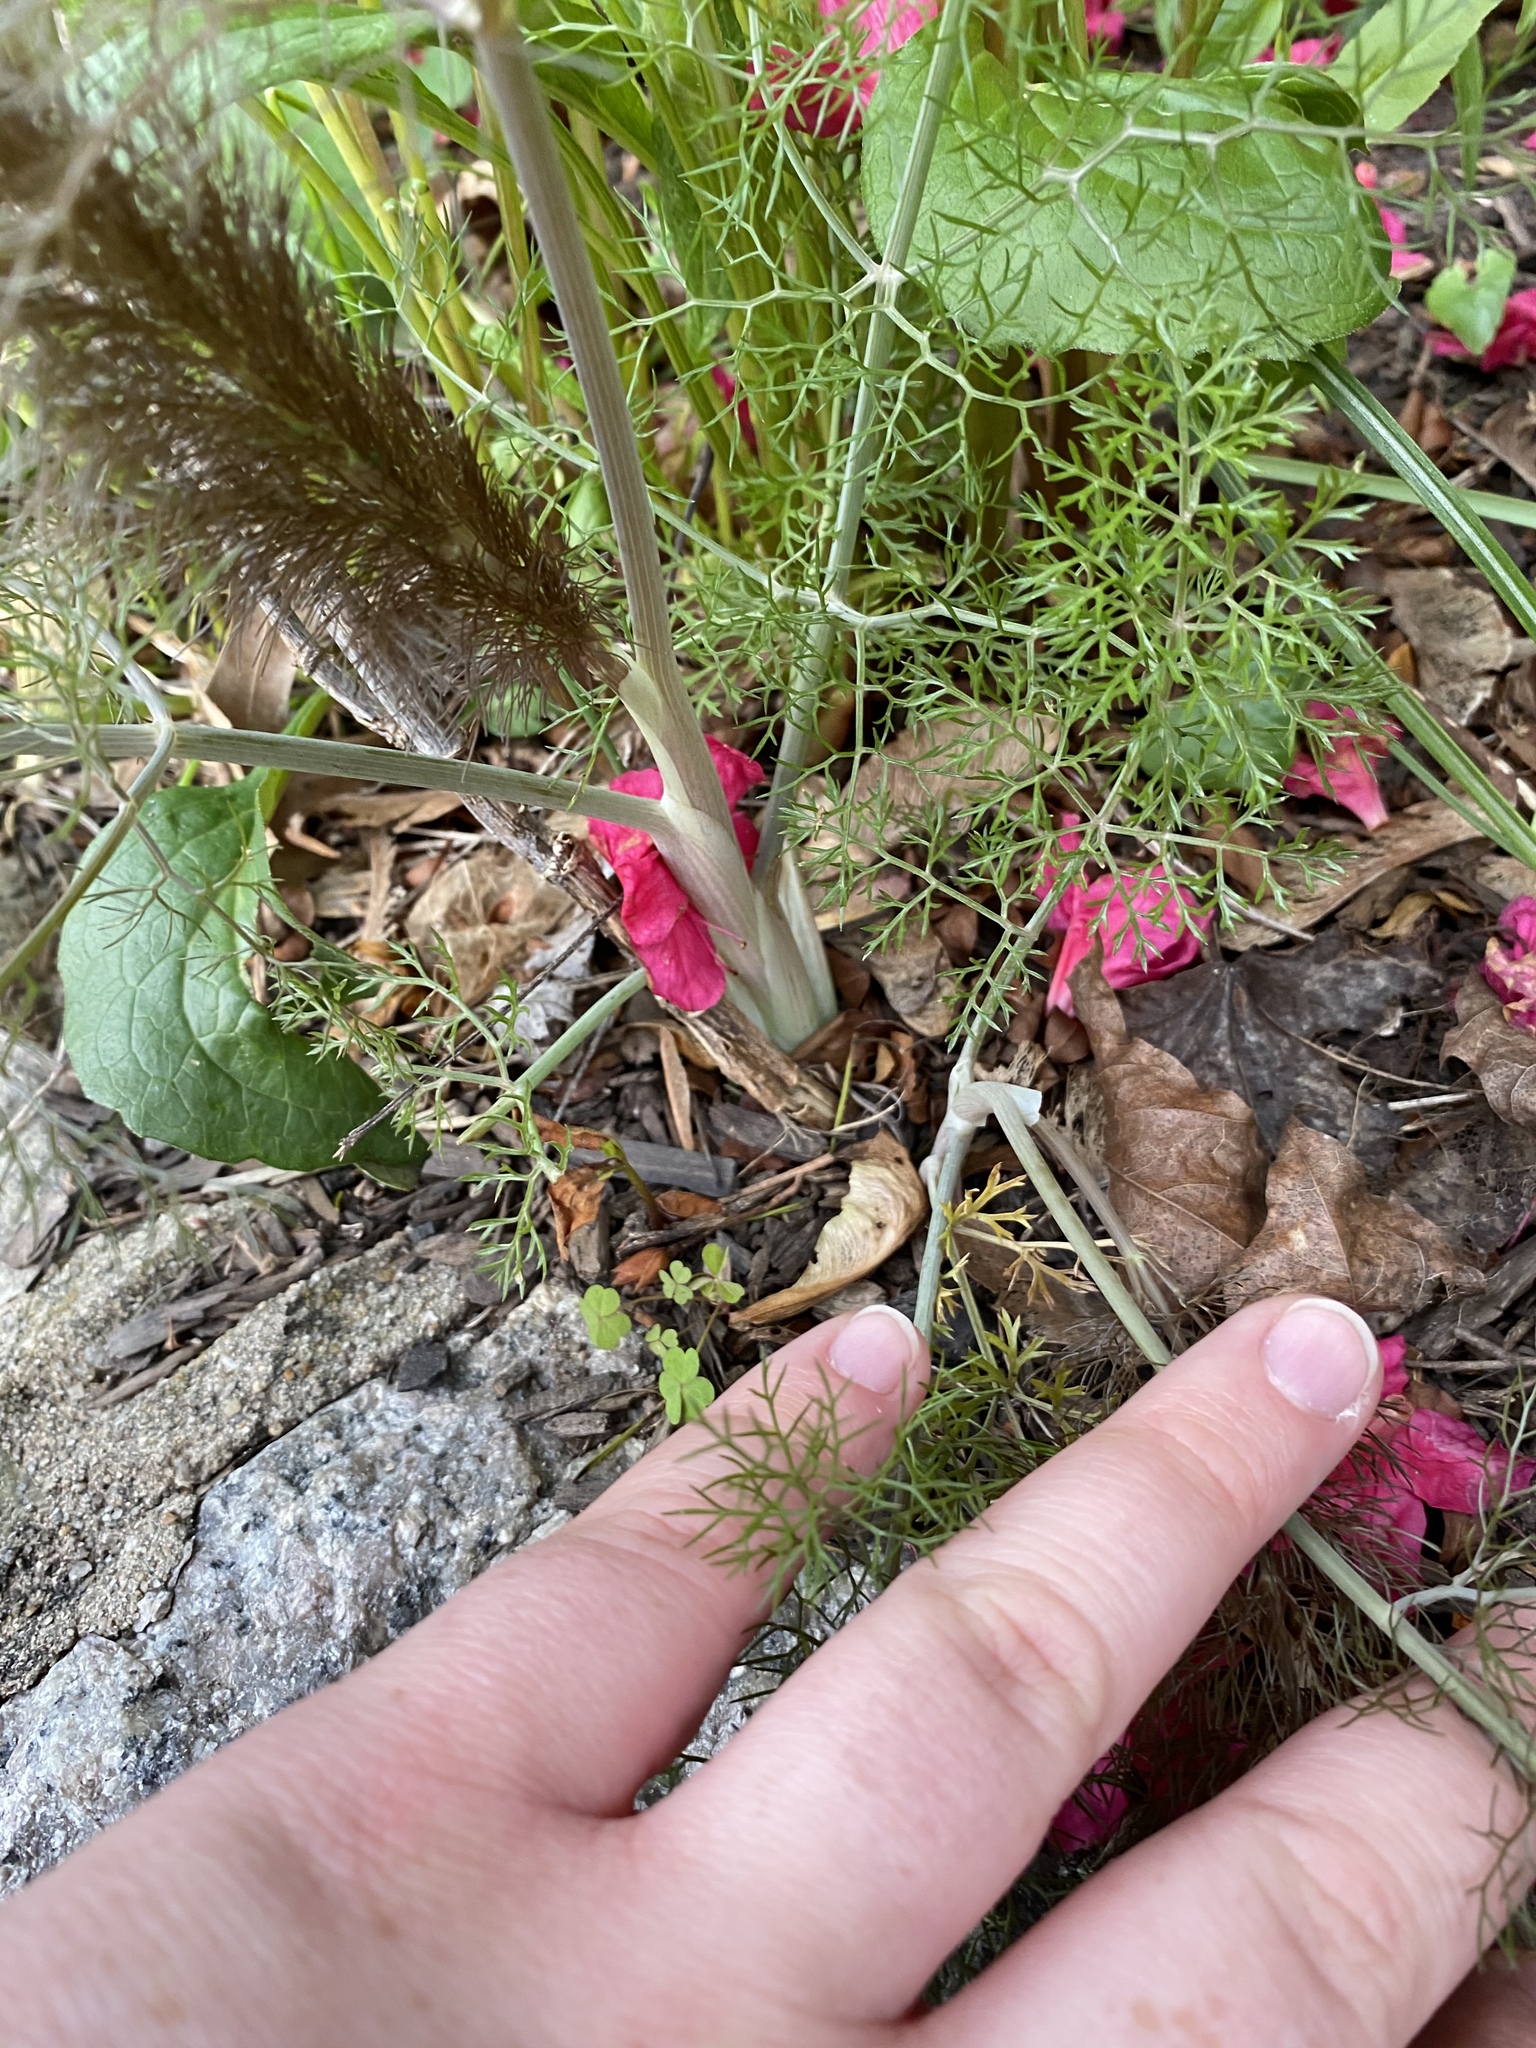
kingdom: Plantae
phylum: Tracheophyta
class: Magnoliopsida
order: Apiales
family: Apiaceae
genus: Foeniculum
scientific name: Foeniculum vulgare
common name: Fennel
